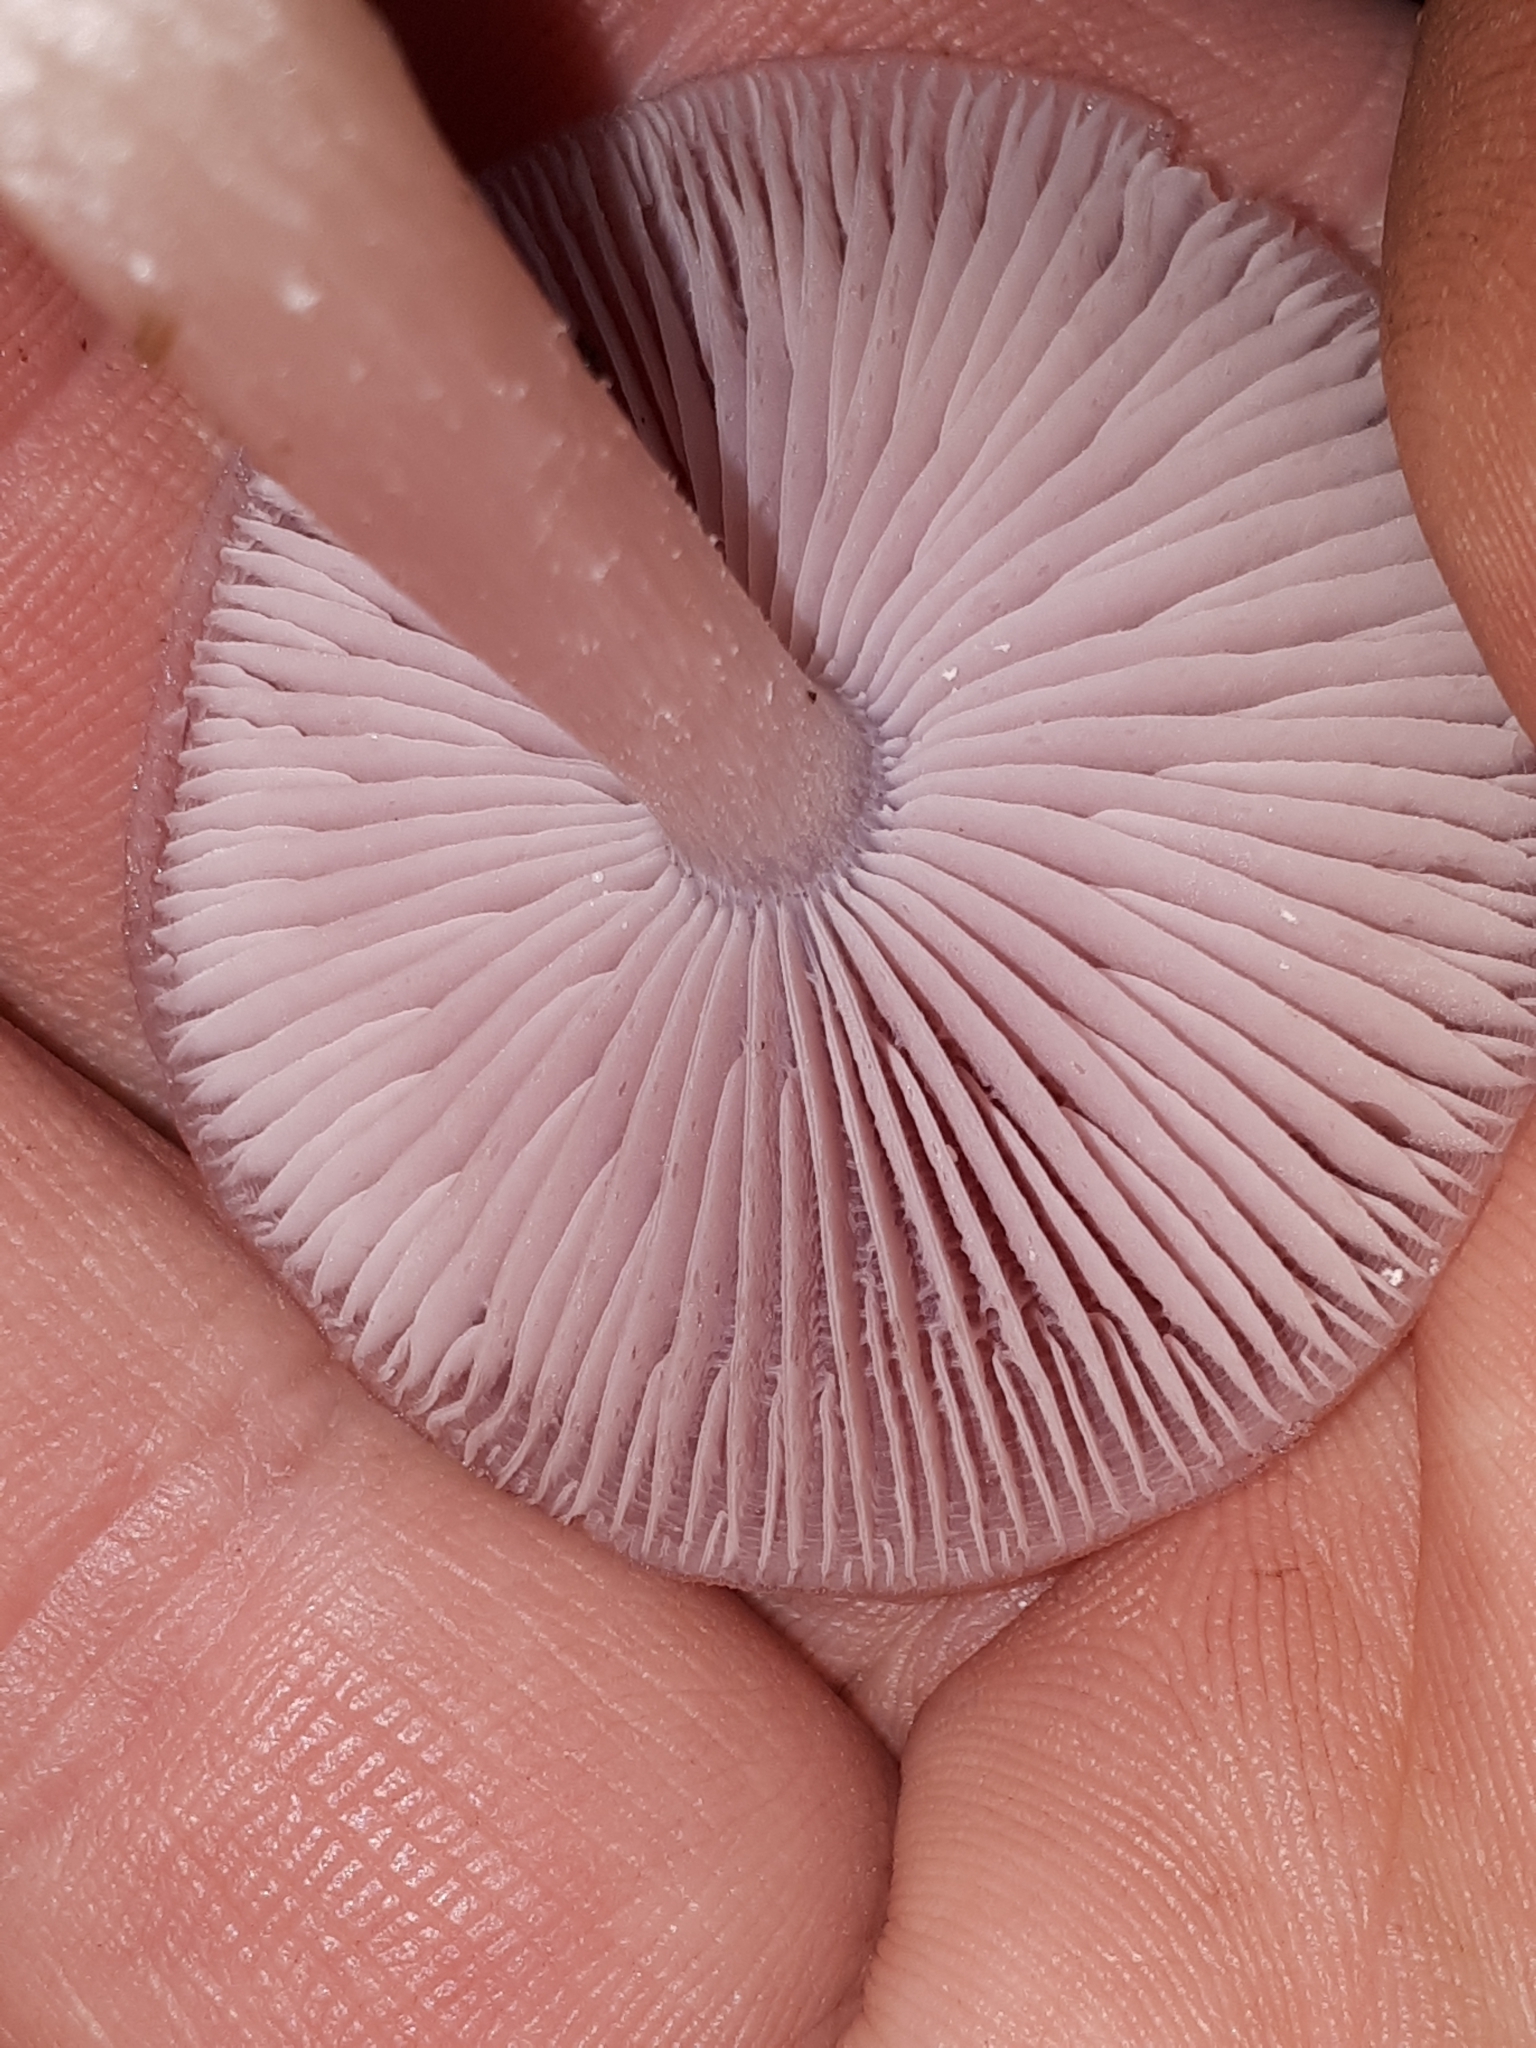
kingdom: Fungi
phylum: Basidiomycota
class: Agaricomycetes
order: Agaricales
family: Mycenaceae
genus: Mycena
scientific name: Mycena rosea
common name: Rosy bonnet
